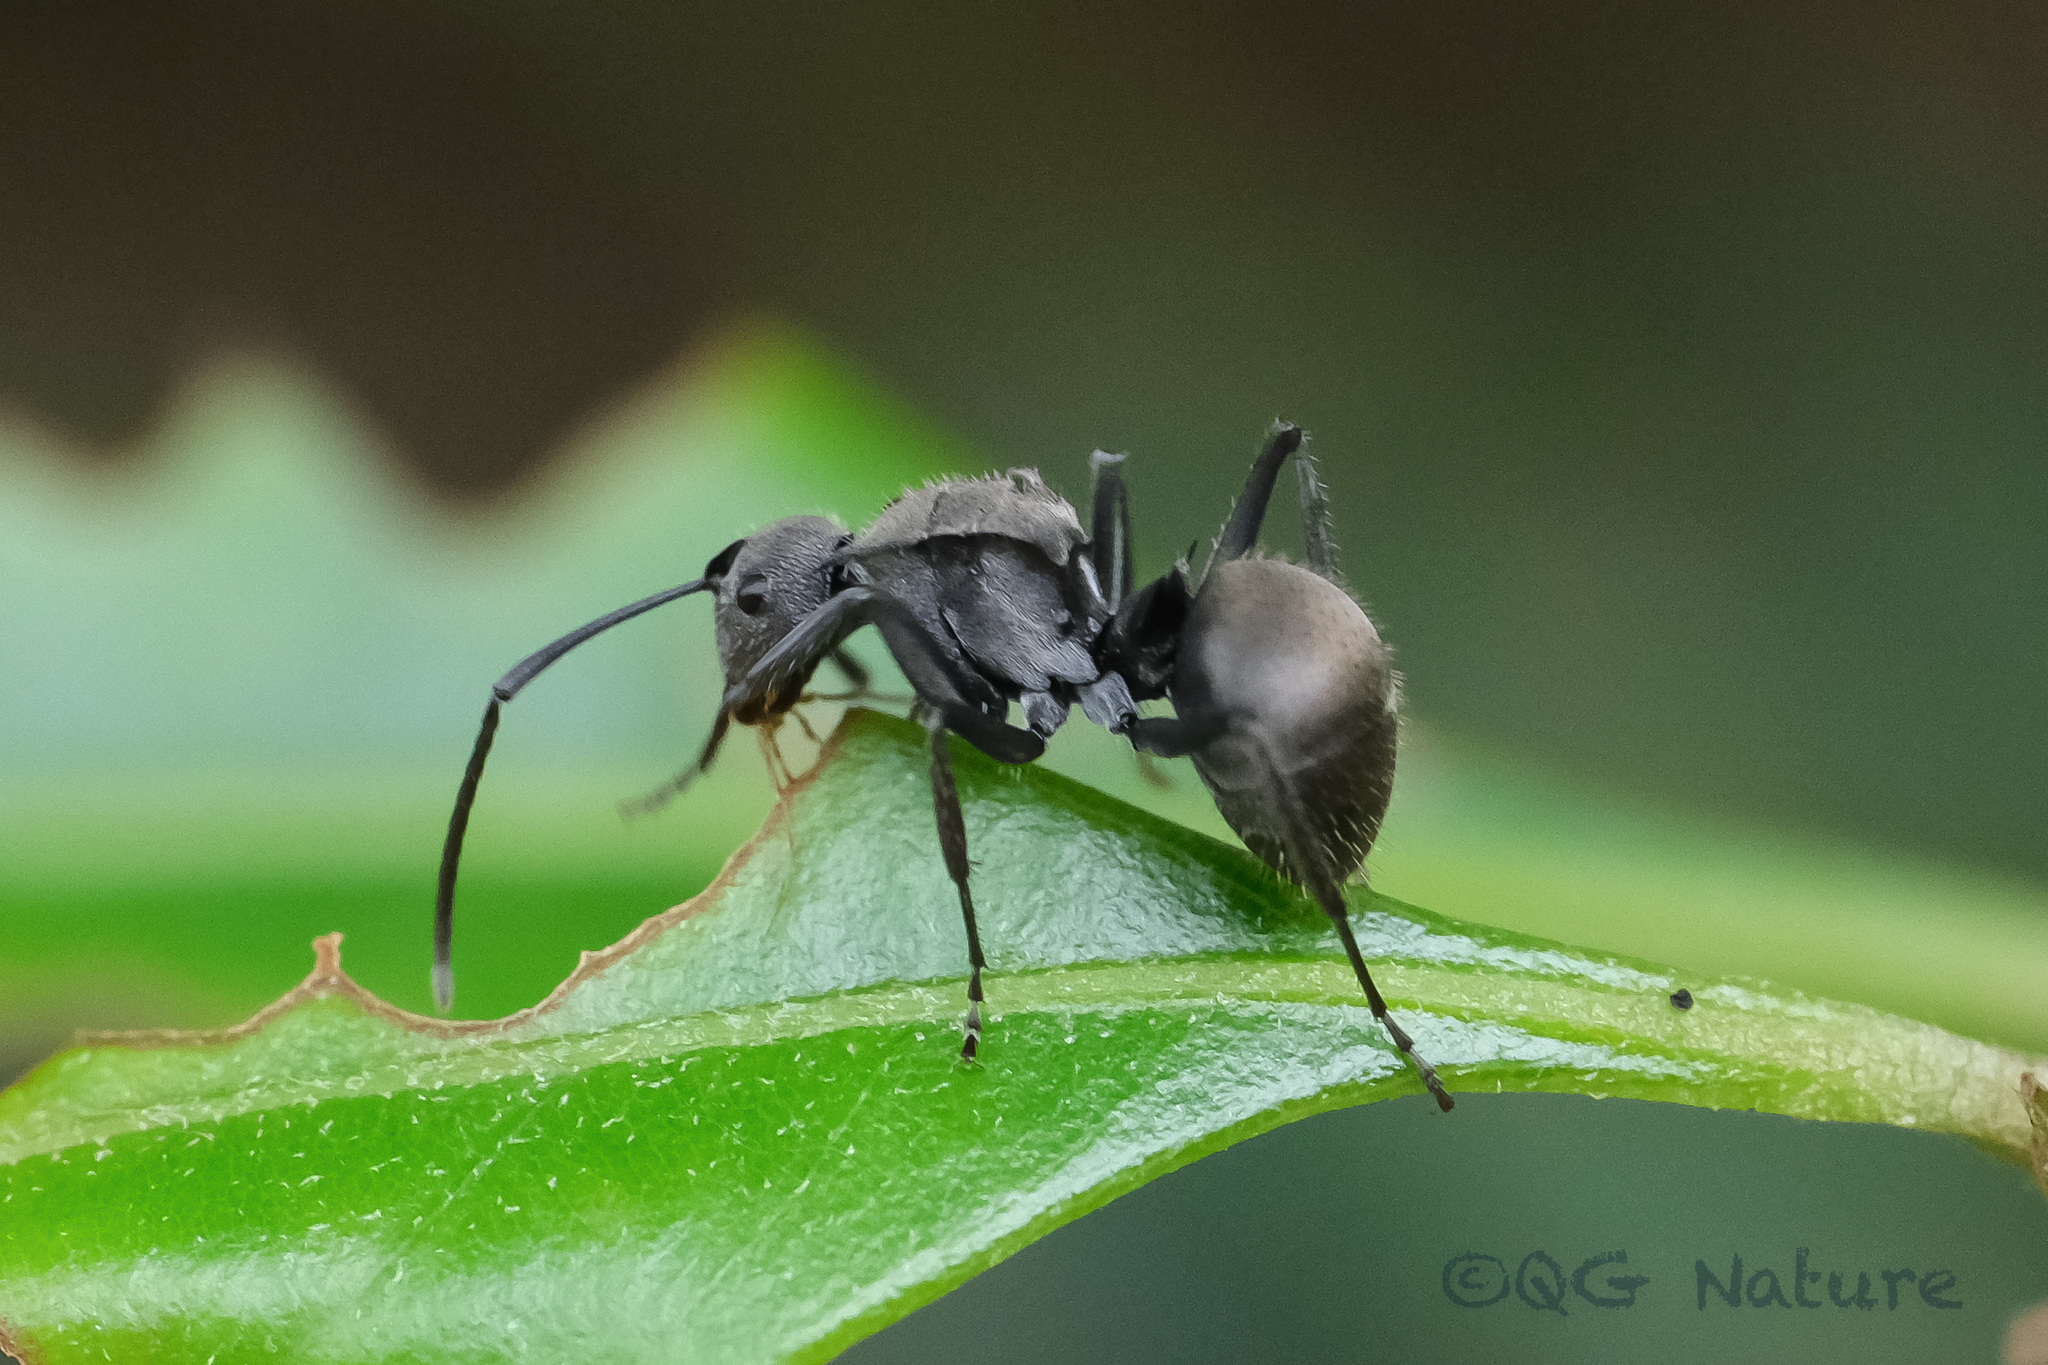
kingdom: Animalia
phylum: Arthropoda
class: Insecta
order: Hymenoptera
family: Formicidae
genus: Polyrhachis
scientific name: Polyrhachis wolfi
